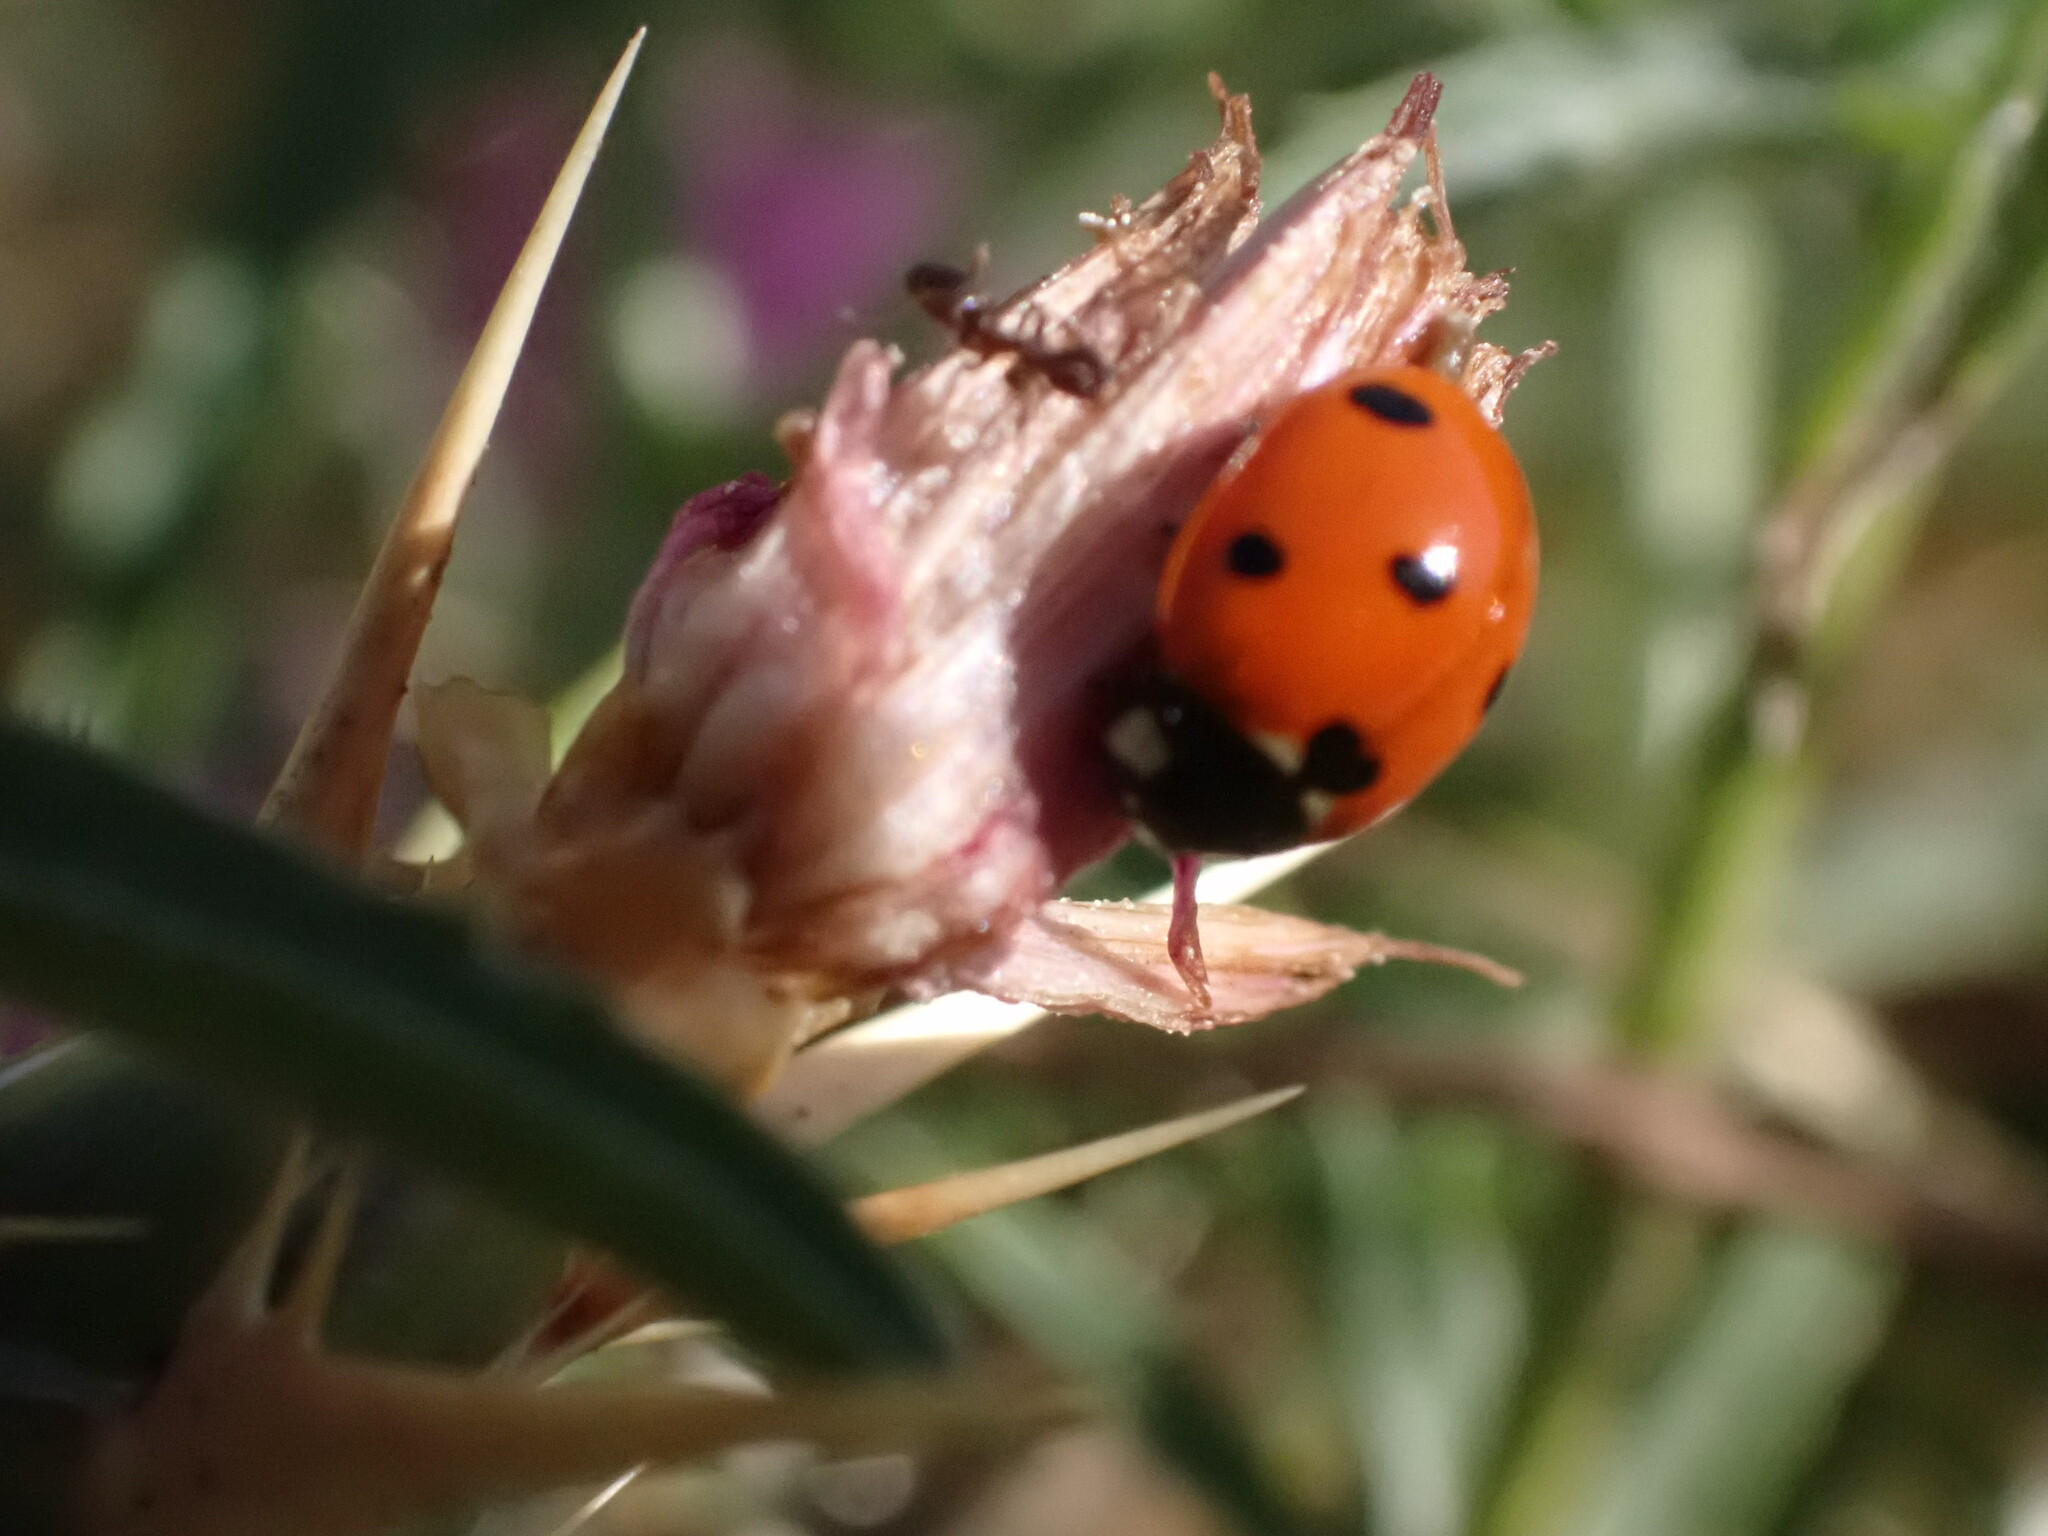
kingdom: Animalia
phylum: Arthropoda
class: Insecta
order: Coleoptera
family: Coccinellidae
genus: Coccinella
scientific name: Coccinella septempunctata
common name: Sevenspotted lady beetle
